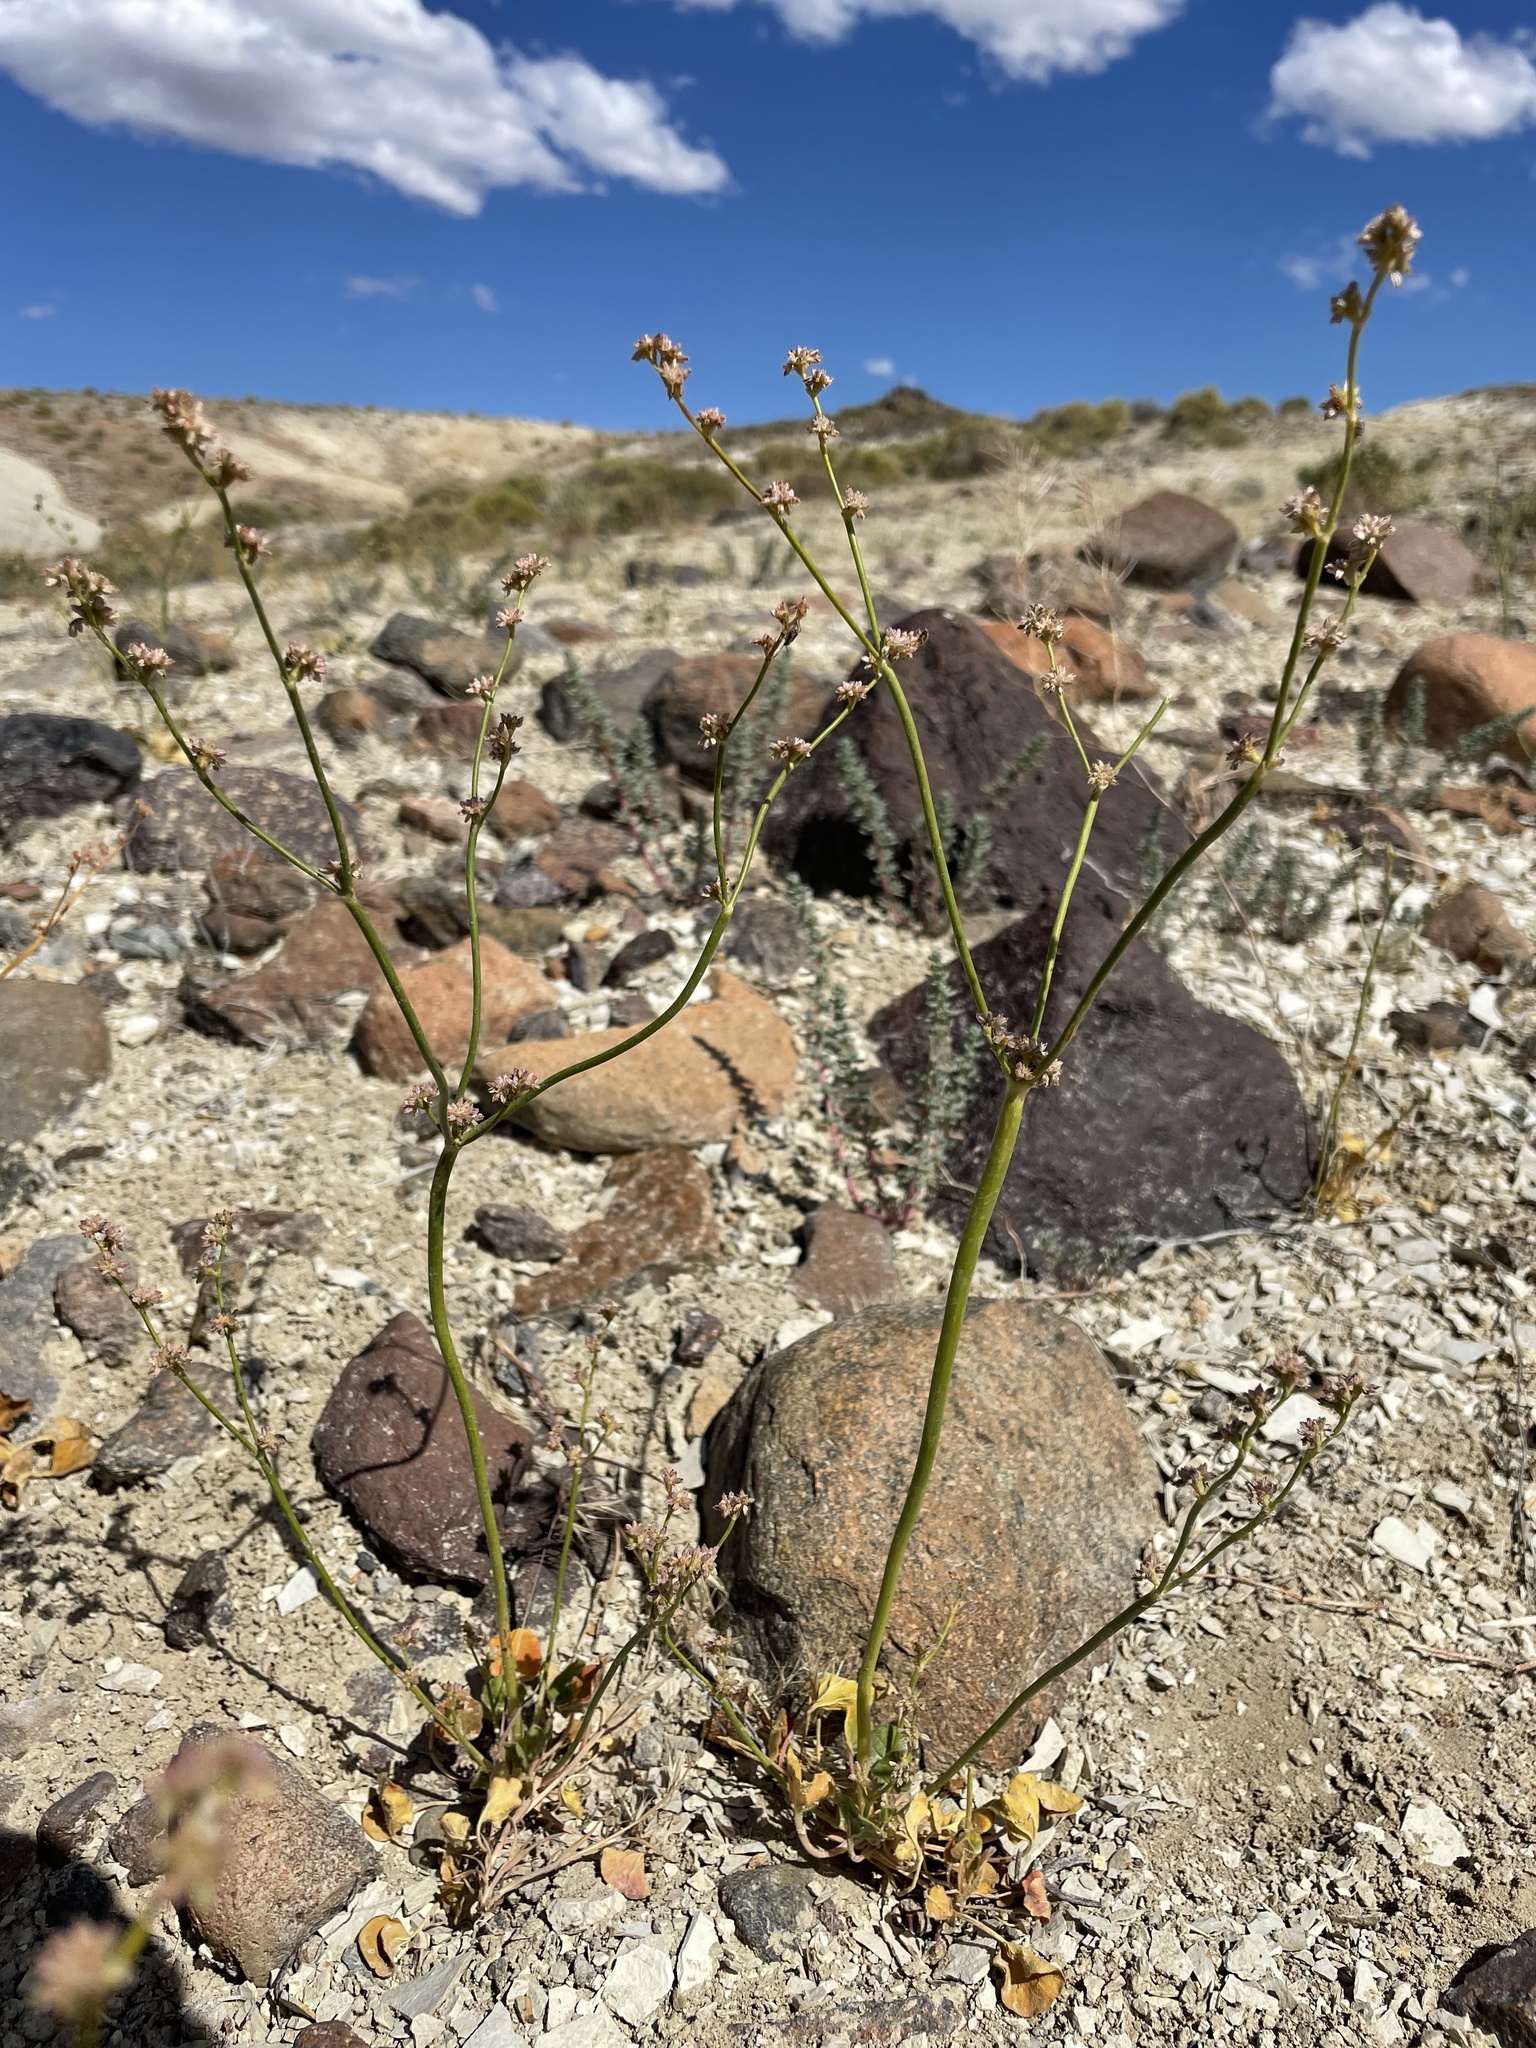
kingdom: Plantae
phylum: Tracheophyta
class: Magnoliopsida
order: Caryophyllales
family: Polygonaceae
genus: Eriogonum
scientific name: Eriogonum lemmonii
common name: Lemmon's wild buckwheat
